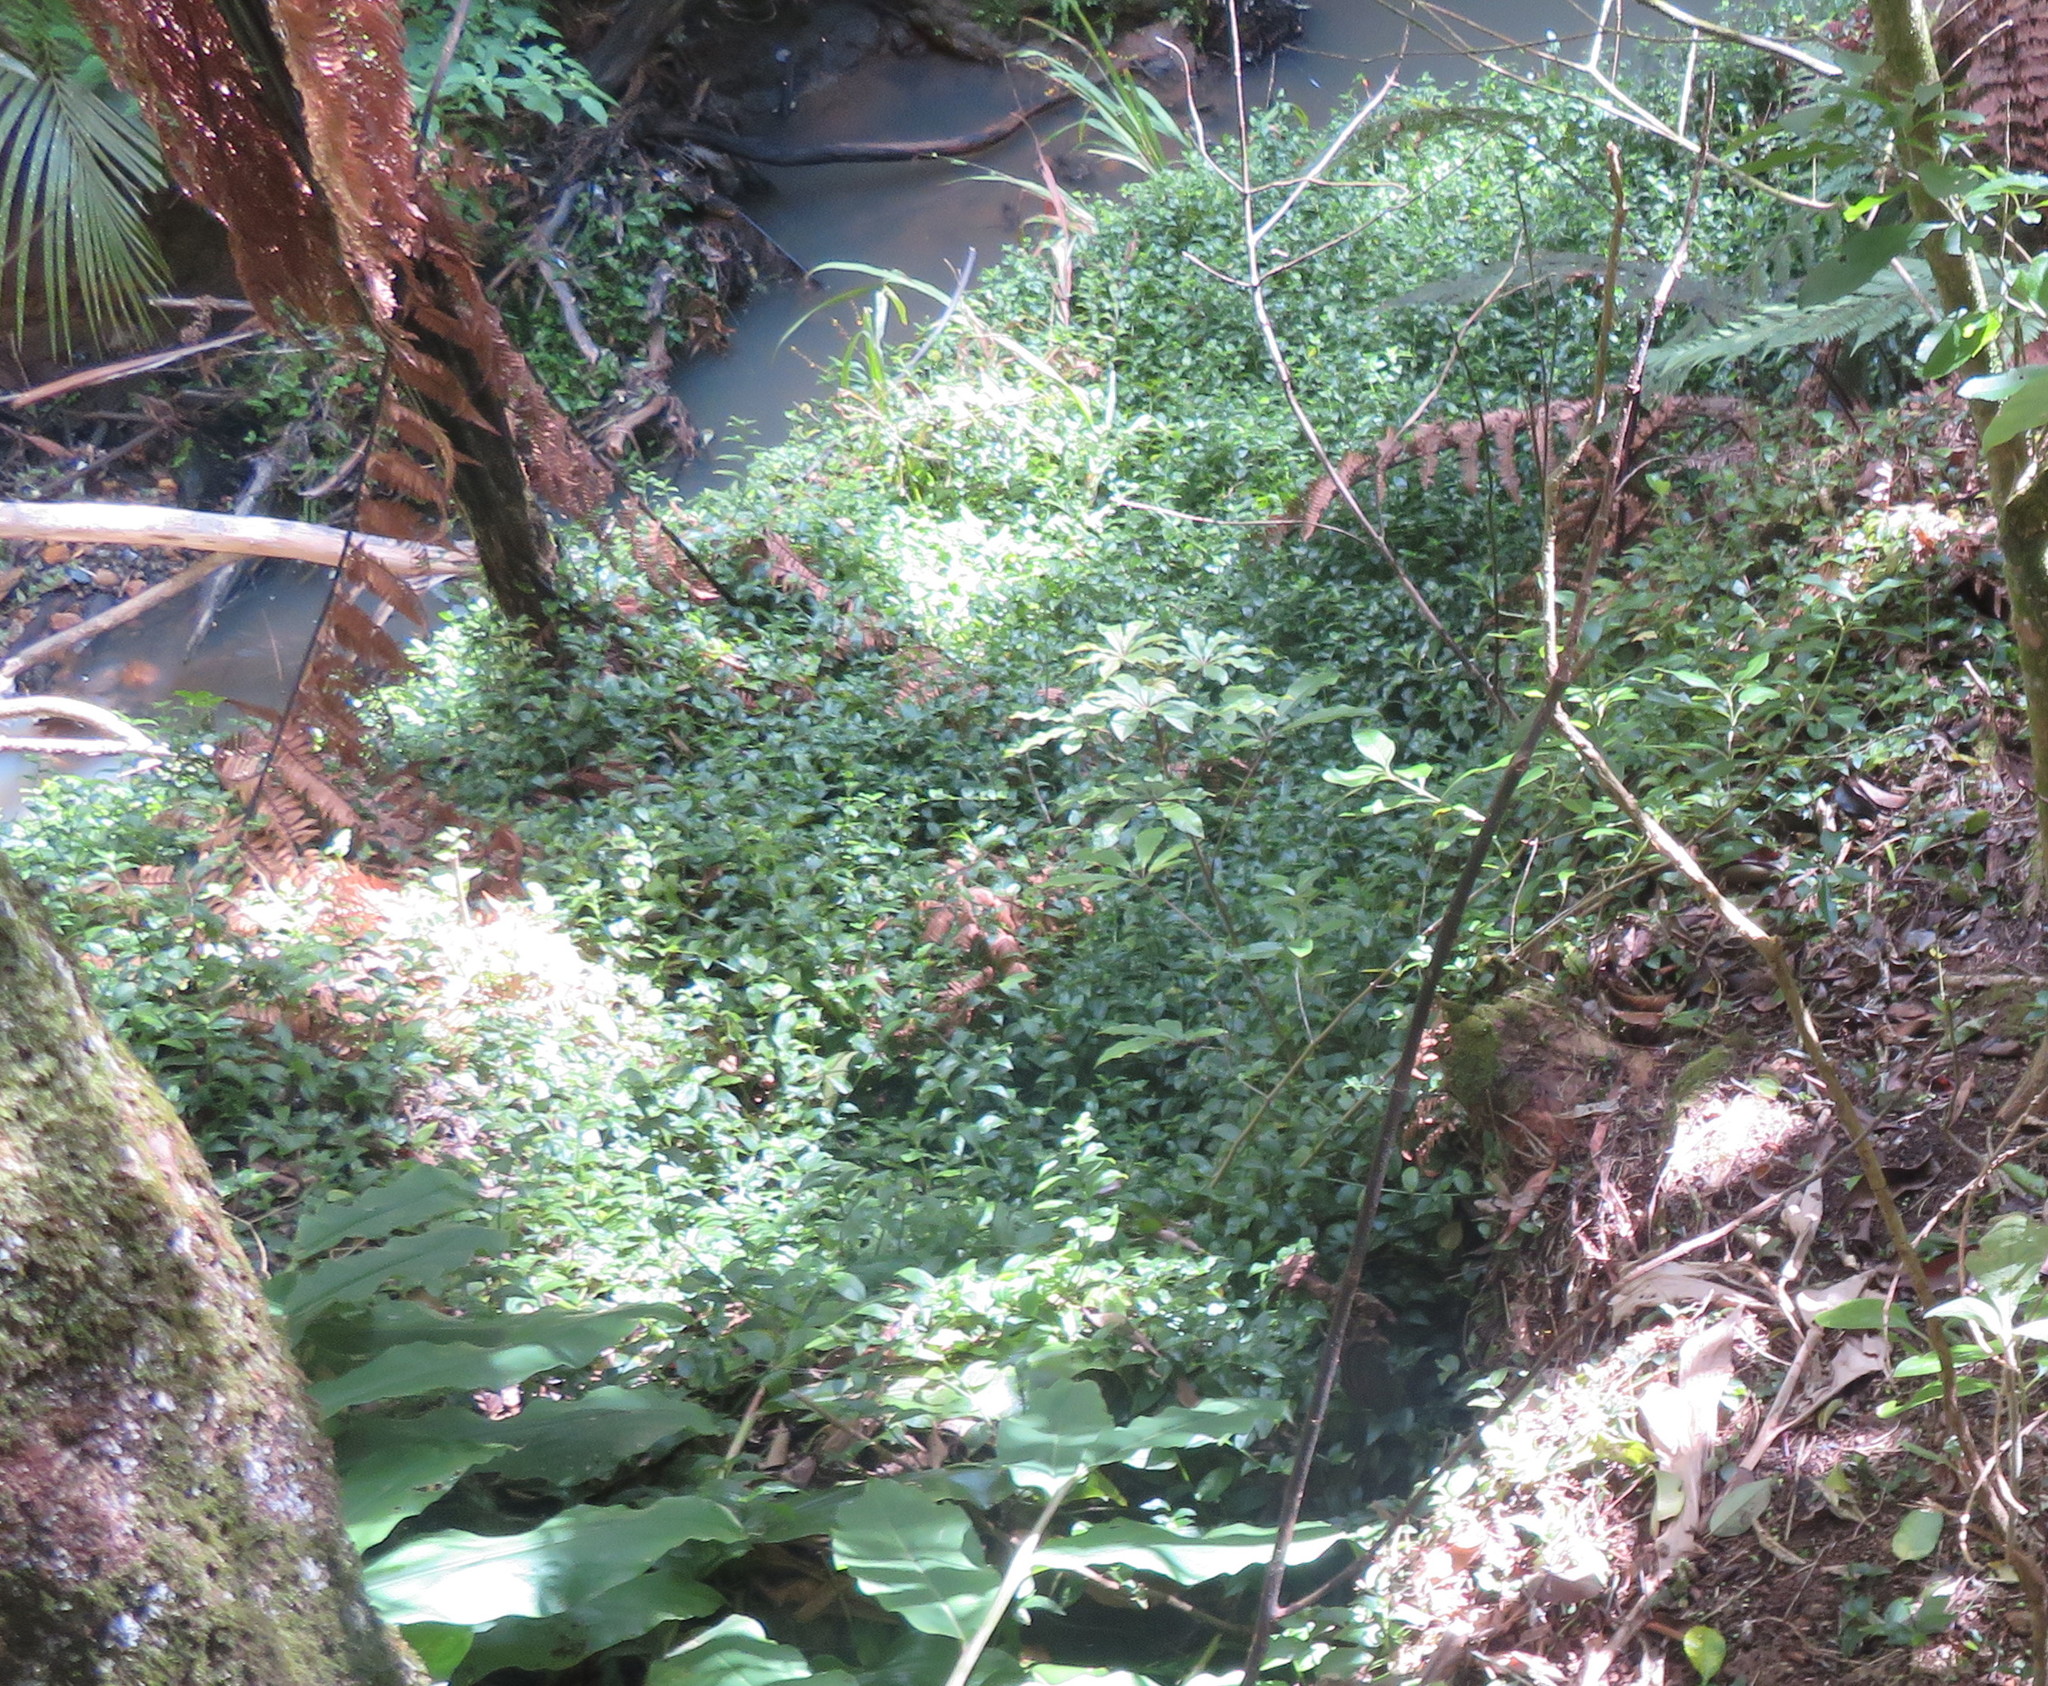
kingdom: Plantae
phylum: Tracheophyta
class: Liliopsida
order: Commelinales
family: Commelinaceae
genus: Tradescantia
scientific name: Tradescantia fluminensis
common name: Wandering-jew
